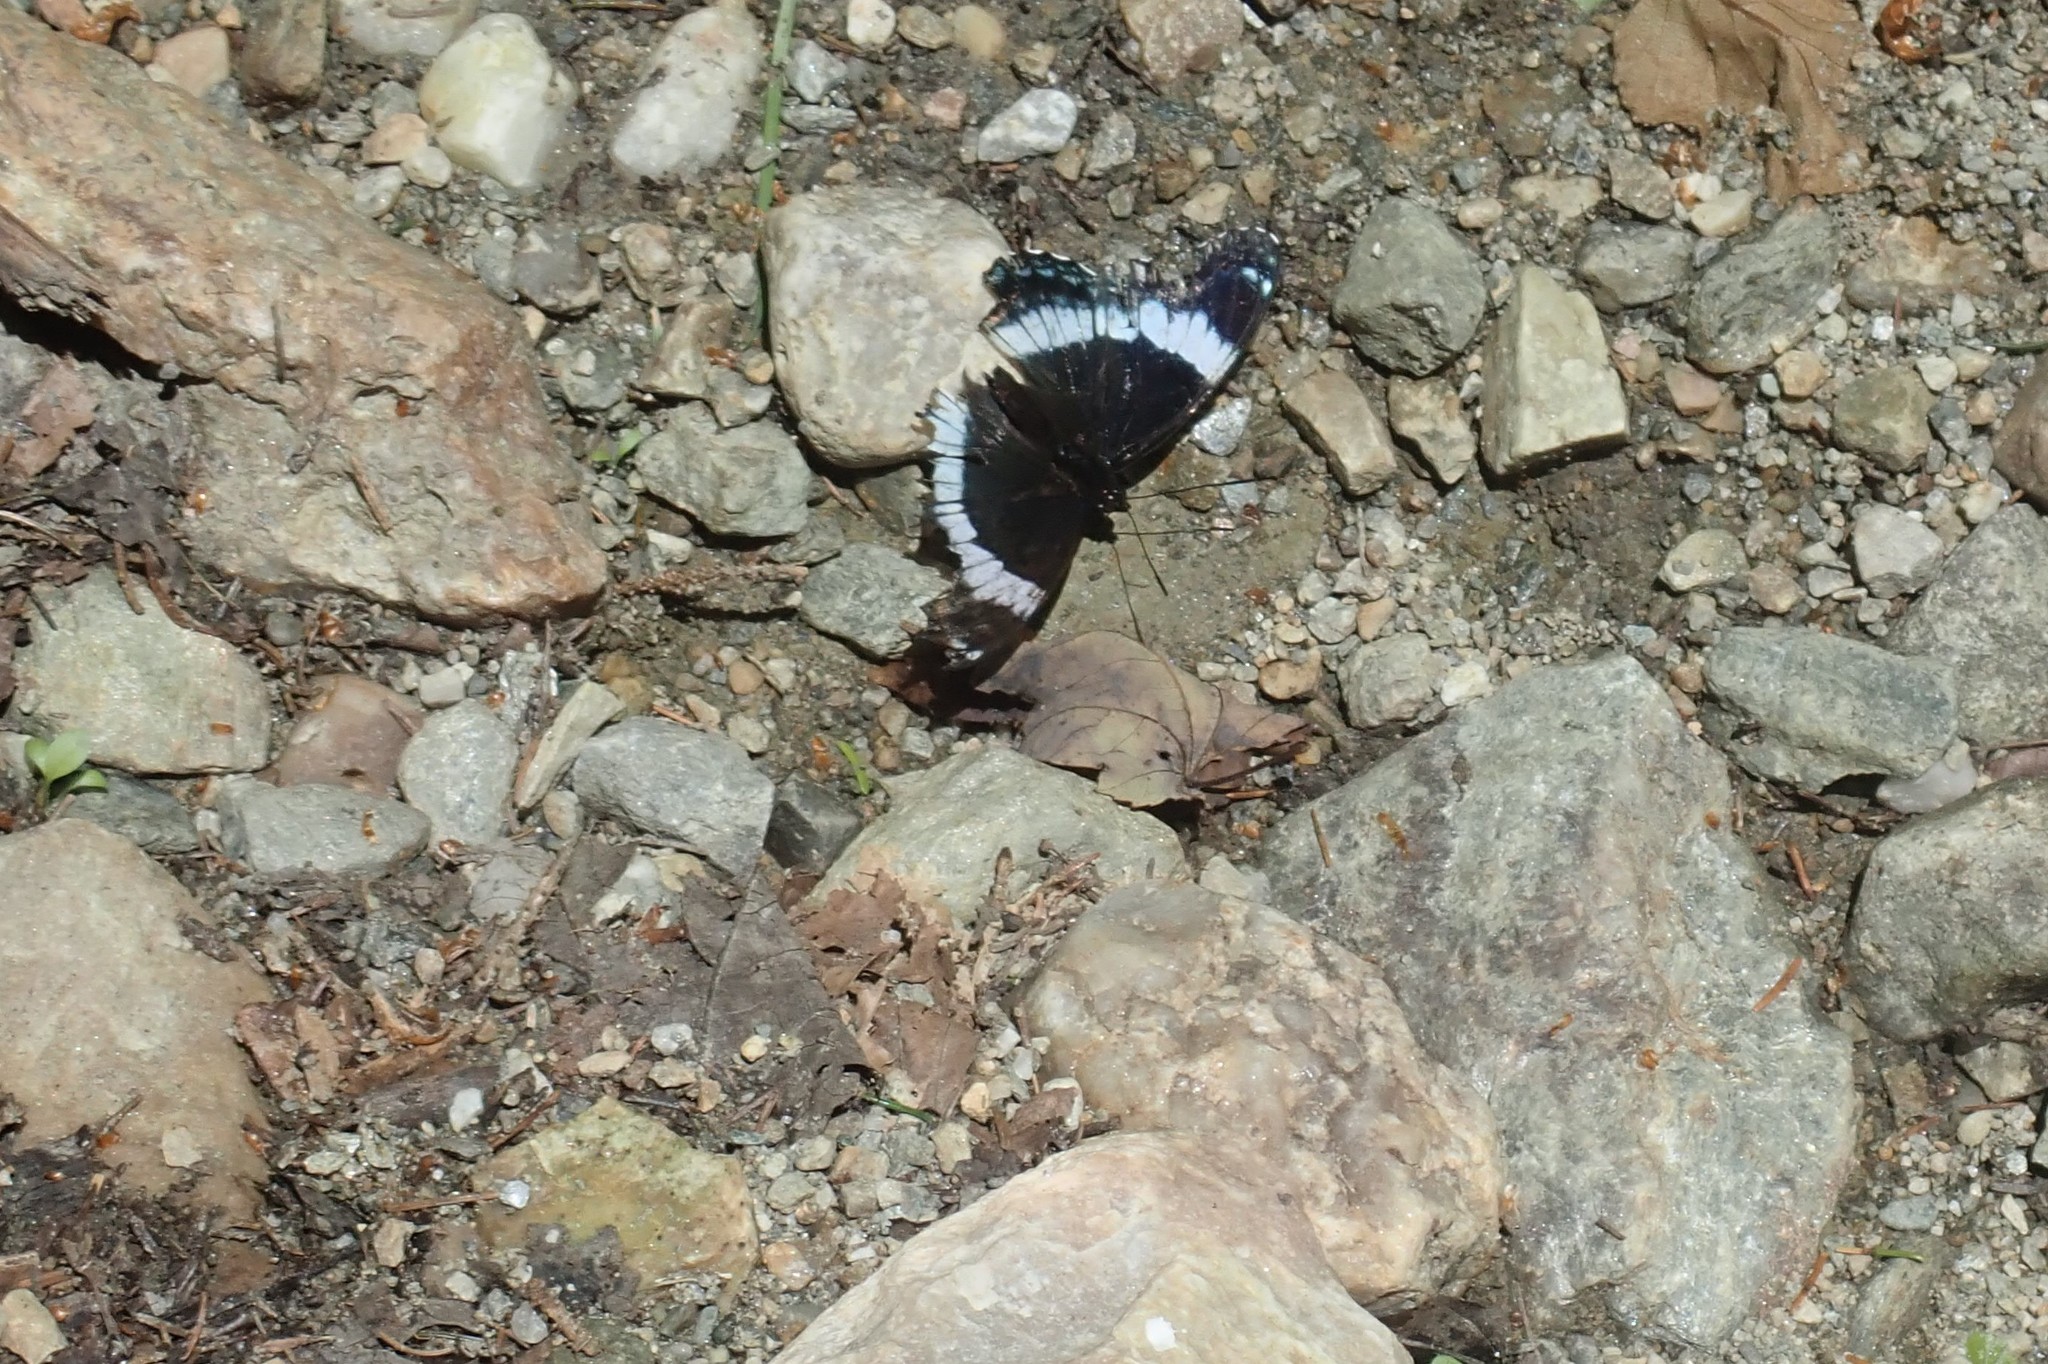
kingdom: Animalia
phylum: Arthropoda
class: Insecta
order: Lepidoptera
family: Nymphalidae
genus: Limenitis
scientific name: Limenitis arthemis
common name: Red-spotted admiral
